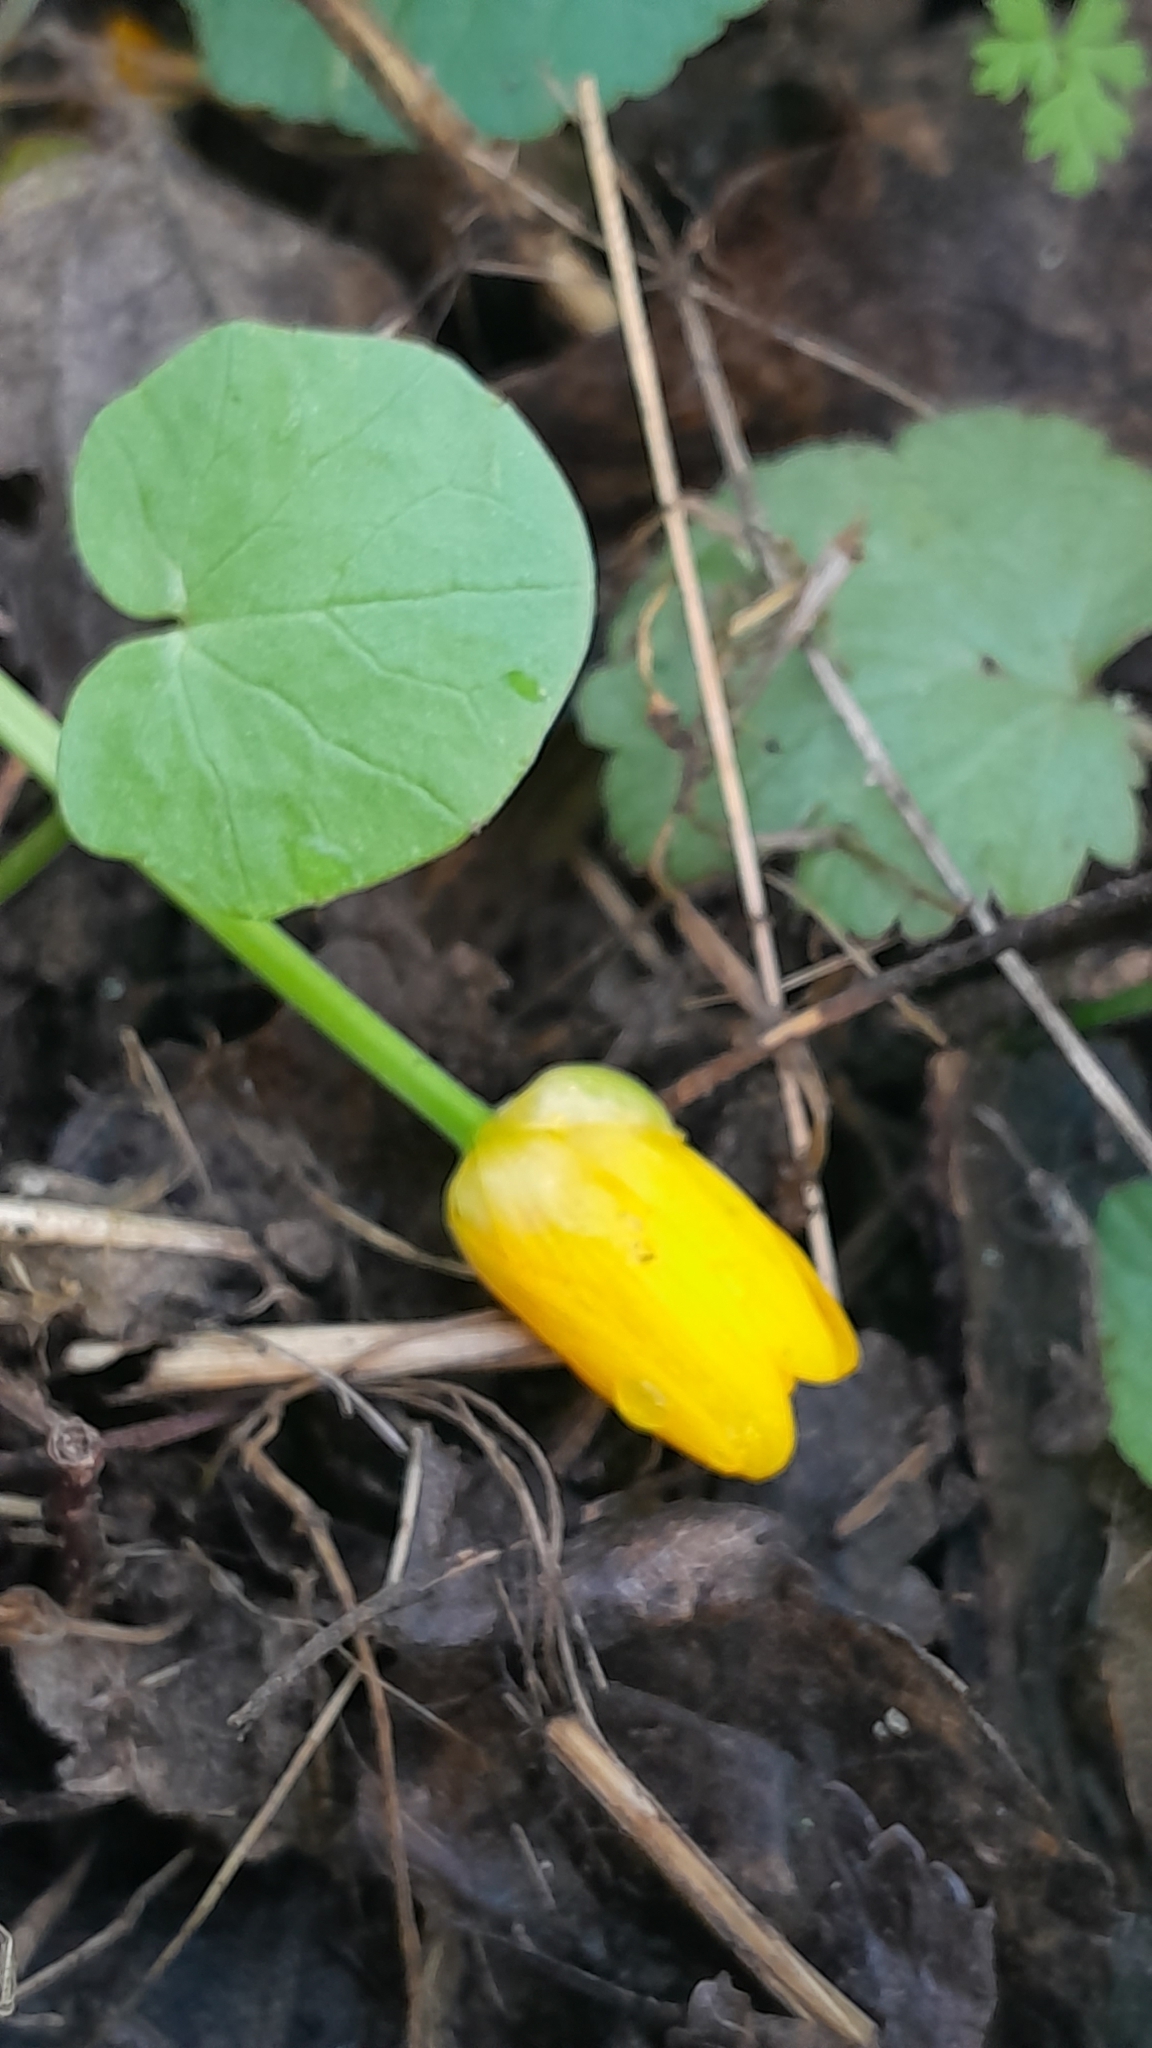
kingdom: Plantae
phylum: Tracheophyta
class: Magnoliopsida
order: Ranunculales
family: Ranunculaceae
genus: Ficaria
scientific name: Ficaria verna
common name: Lesser celandine
